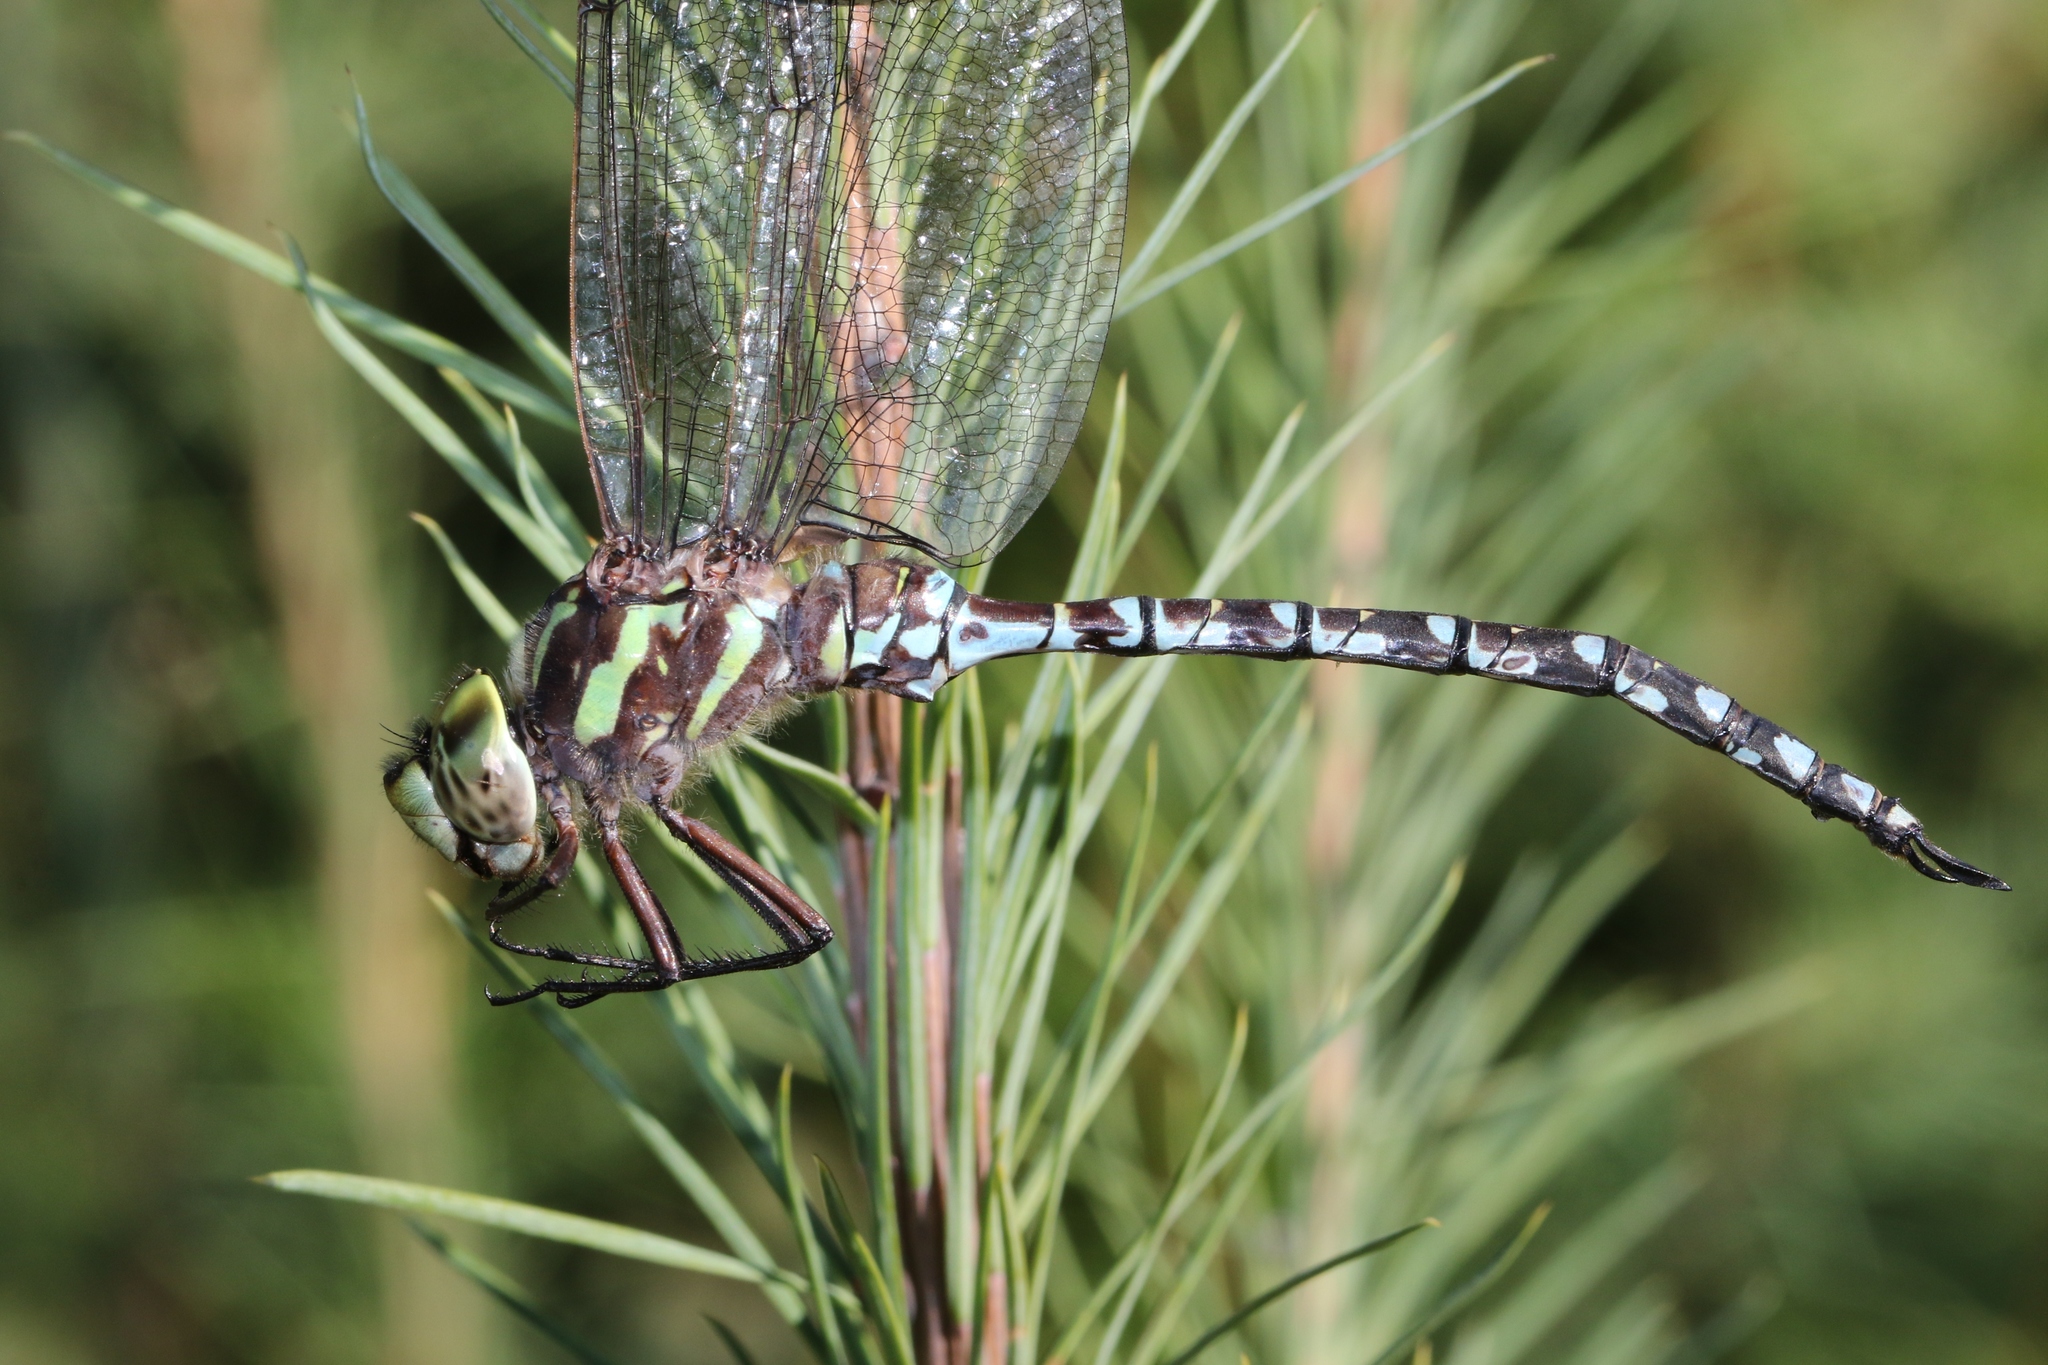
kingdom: Animalia
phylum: Arthropoda
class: Insecta
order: Odonata
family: Aeshnidae
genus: Aeshna
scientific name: Aeshna verticalis
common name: Green-striped darner
